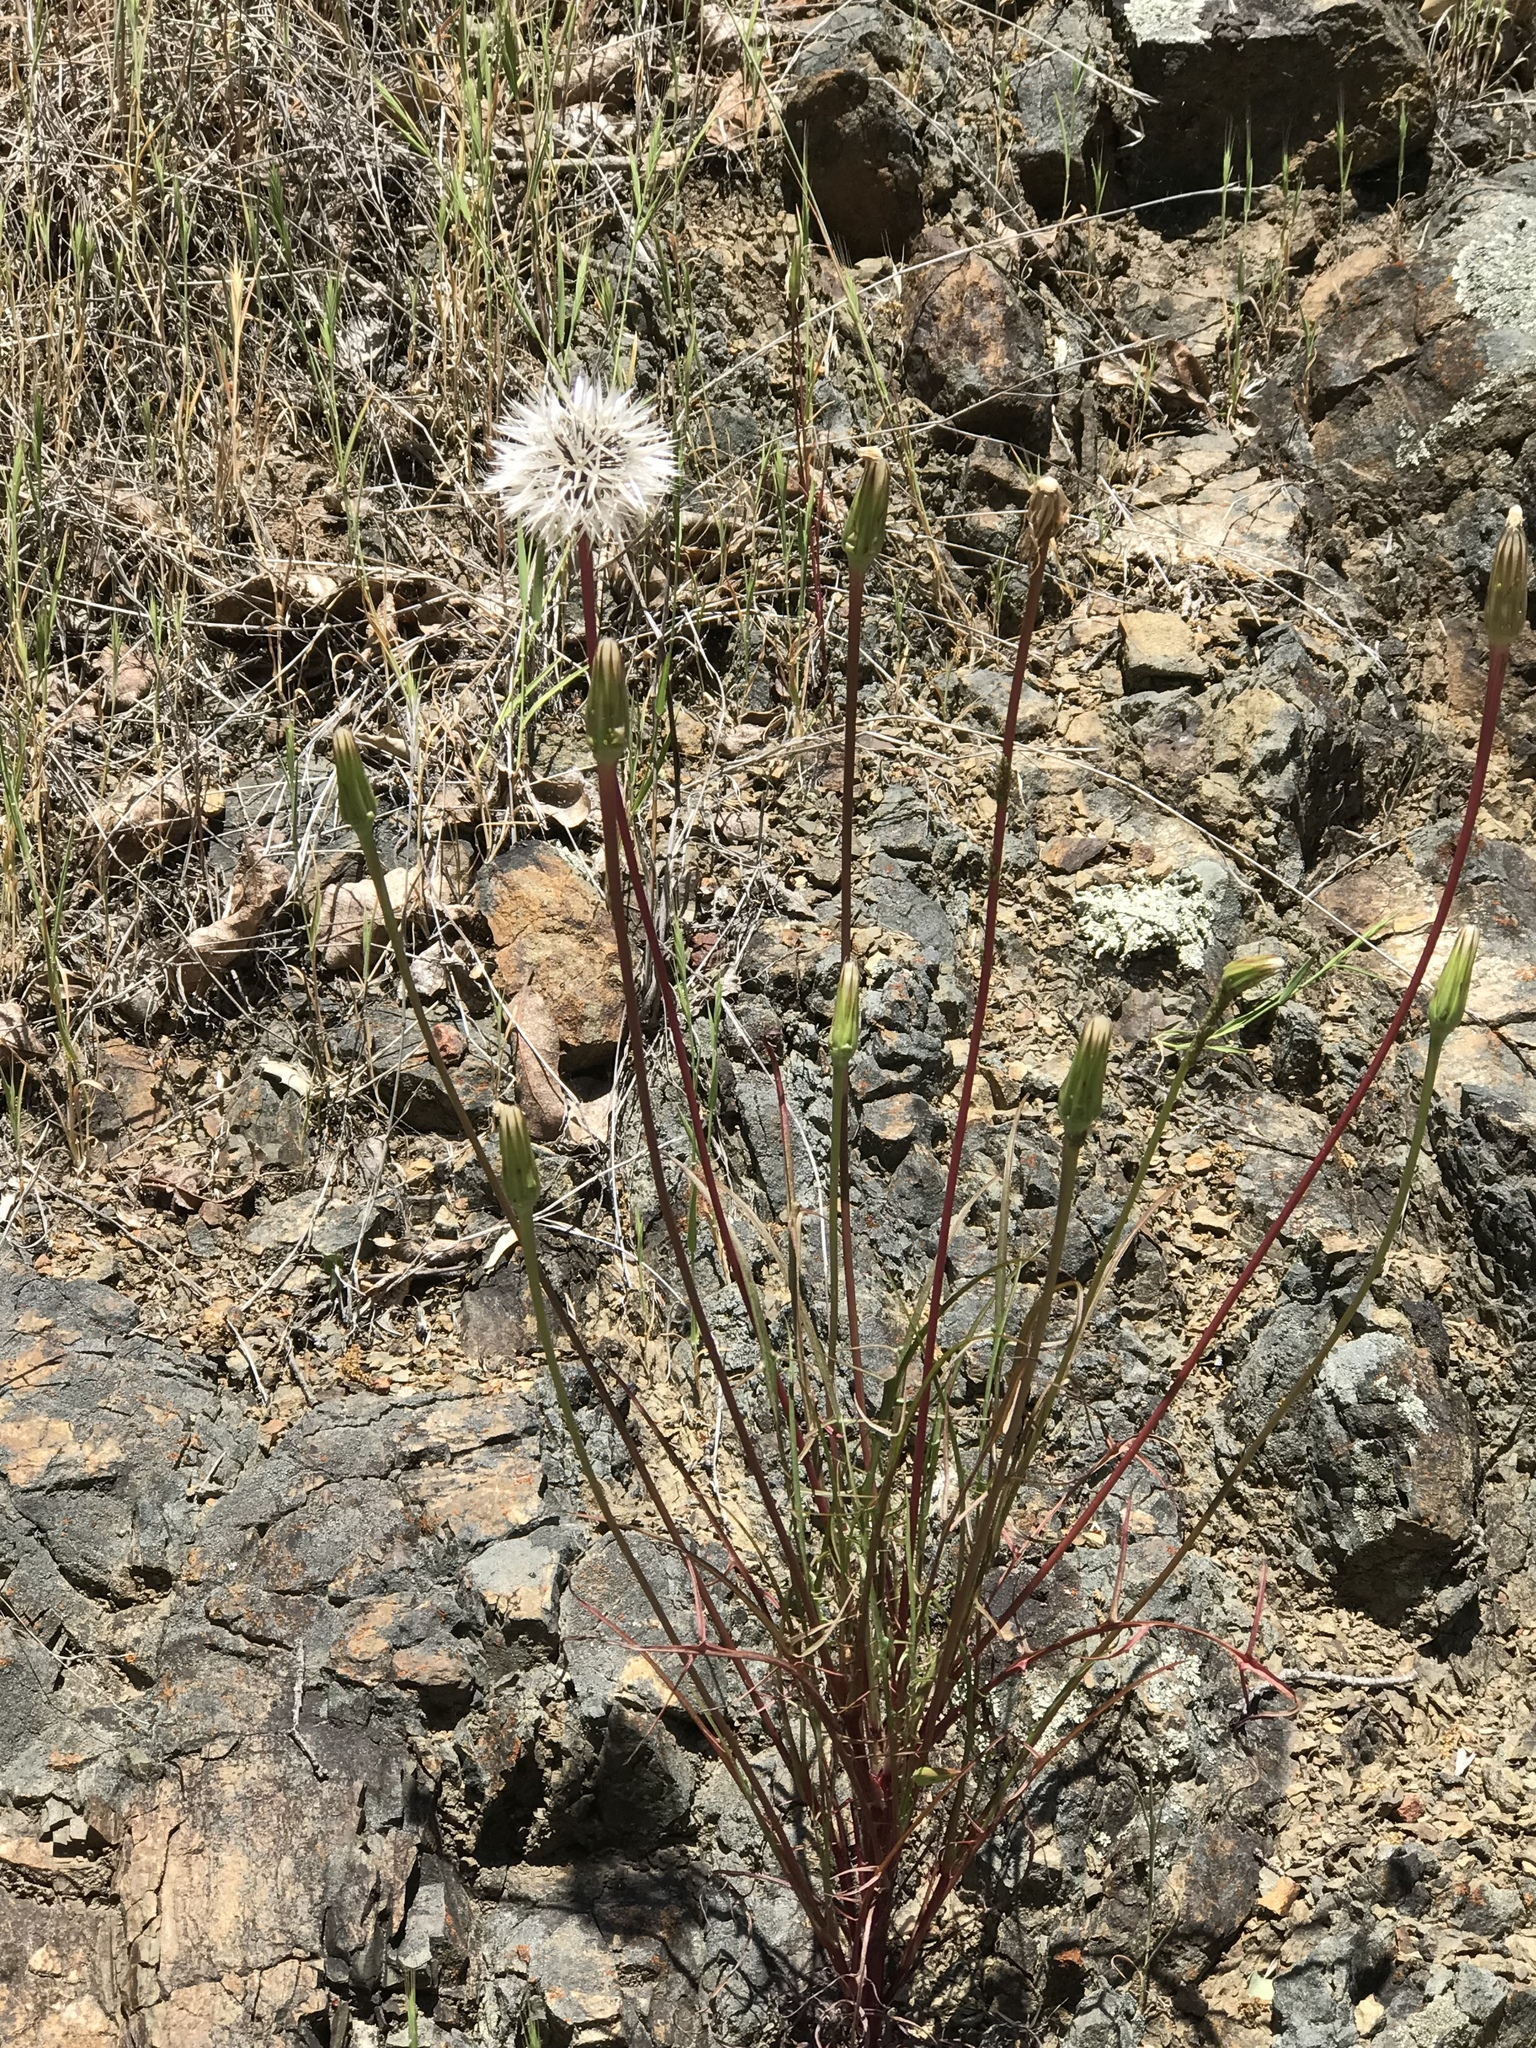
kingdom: Plantae
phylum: Tracheophyta
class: Magnoliopsida
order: Asterales
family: Asteraceae
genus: Microseris
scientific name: Microseris lindleyi
